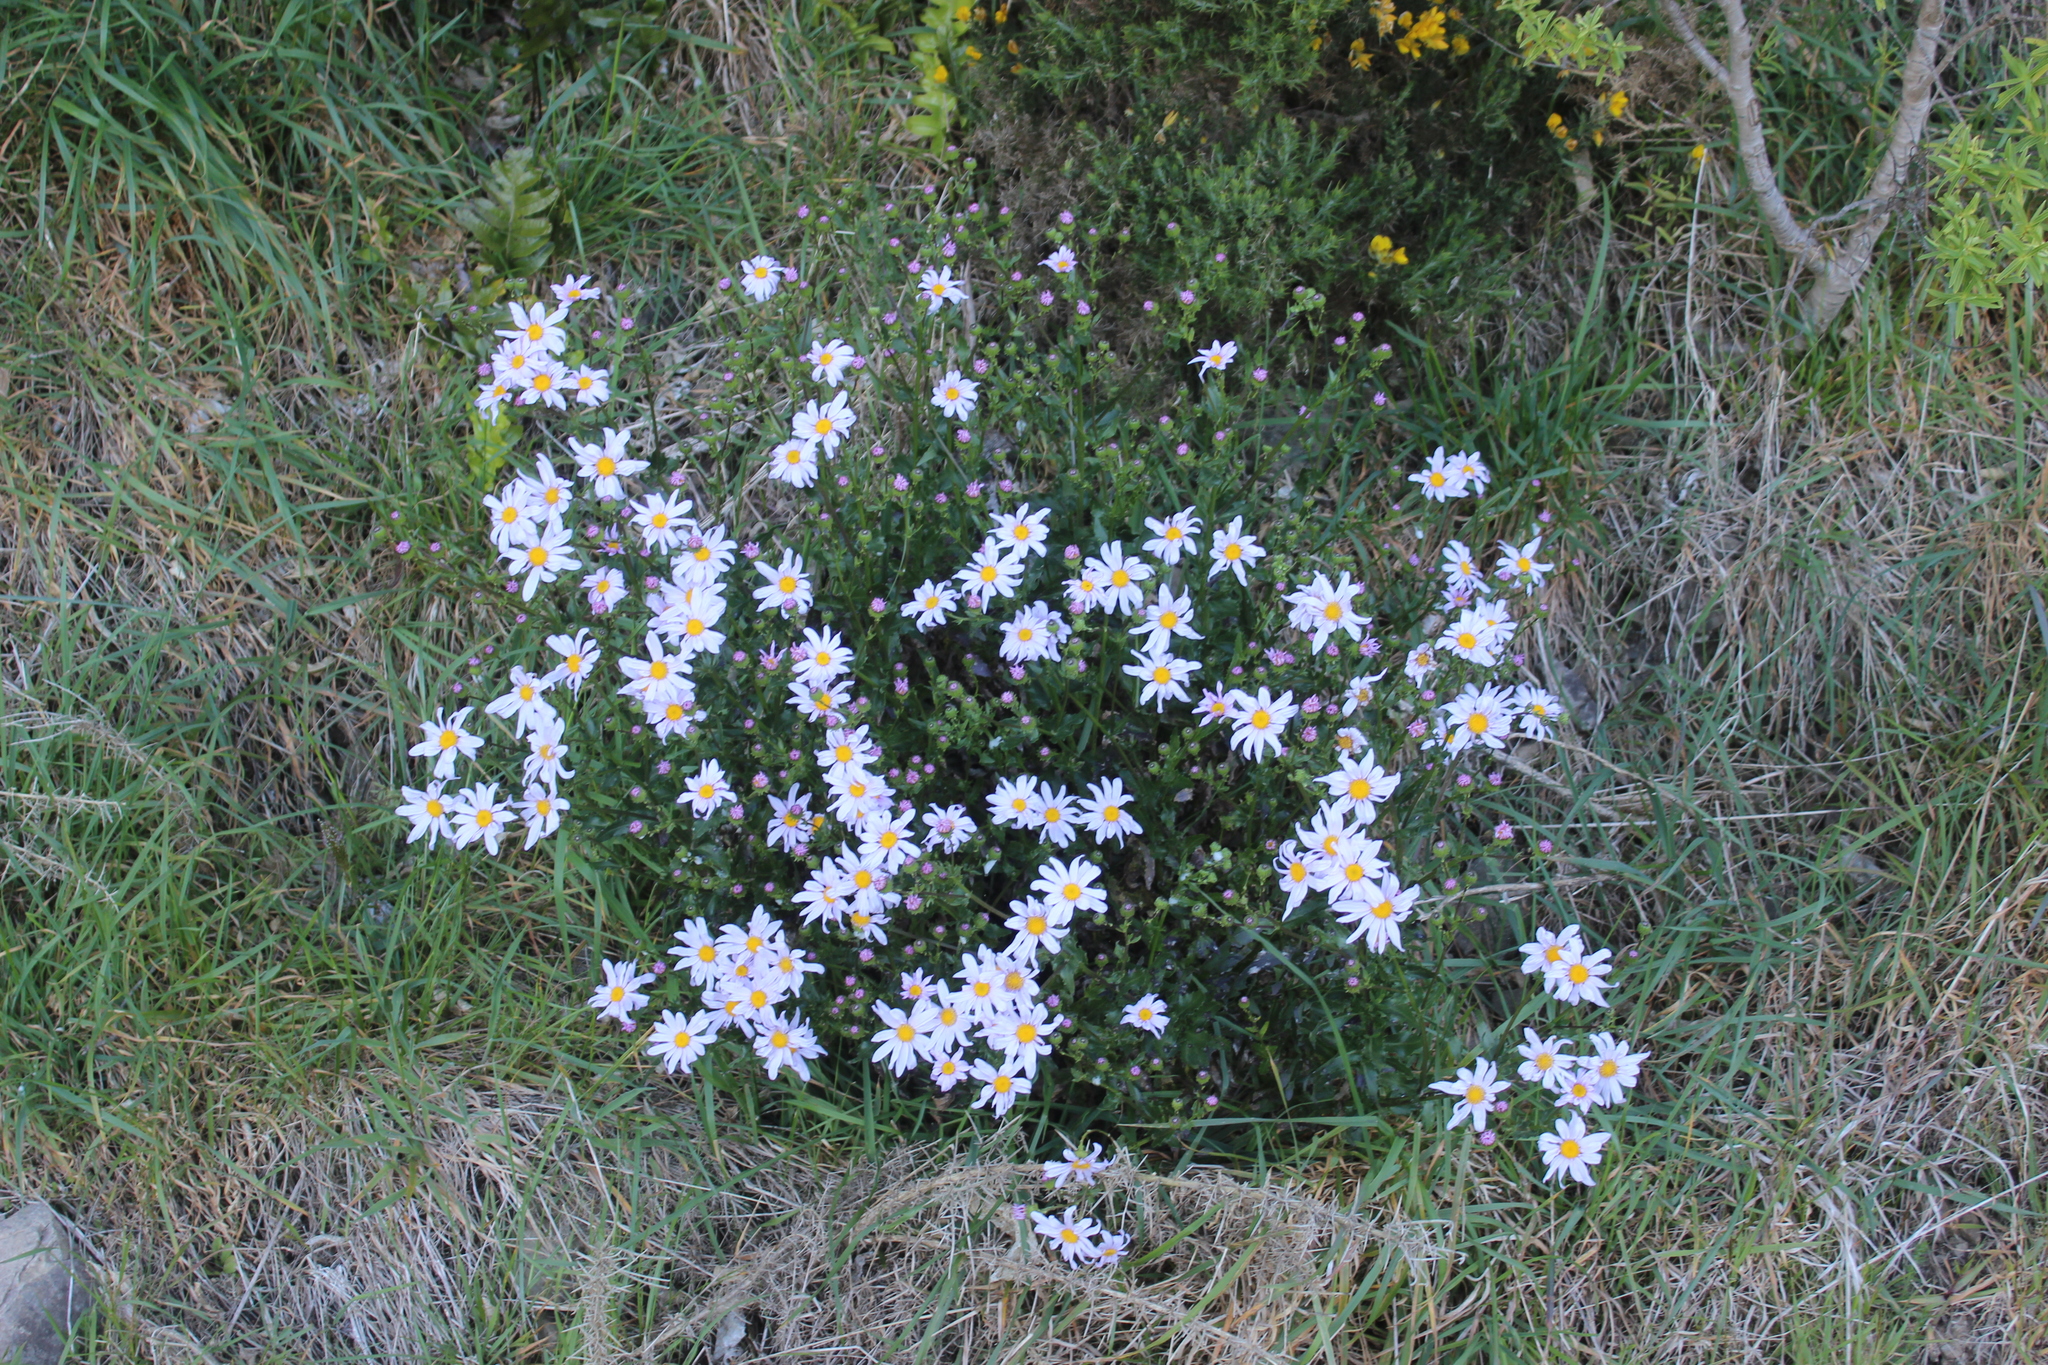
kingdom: Plantae
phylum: Tracheophyta
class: Magnoliopsida
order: Asterales
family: Asteraceae
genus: Senecio
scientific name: Senecio glastifolius
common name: Woad-leaved ragwort
